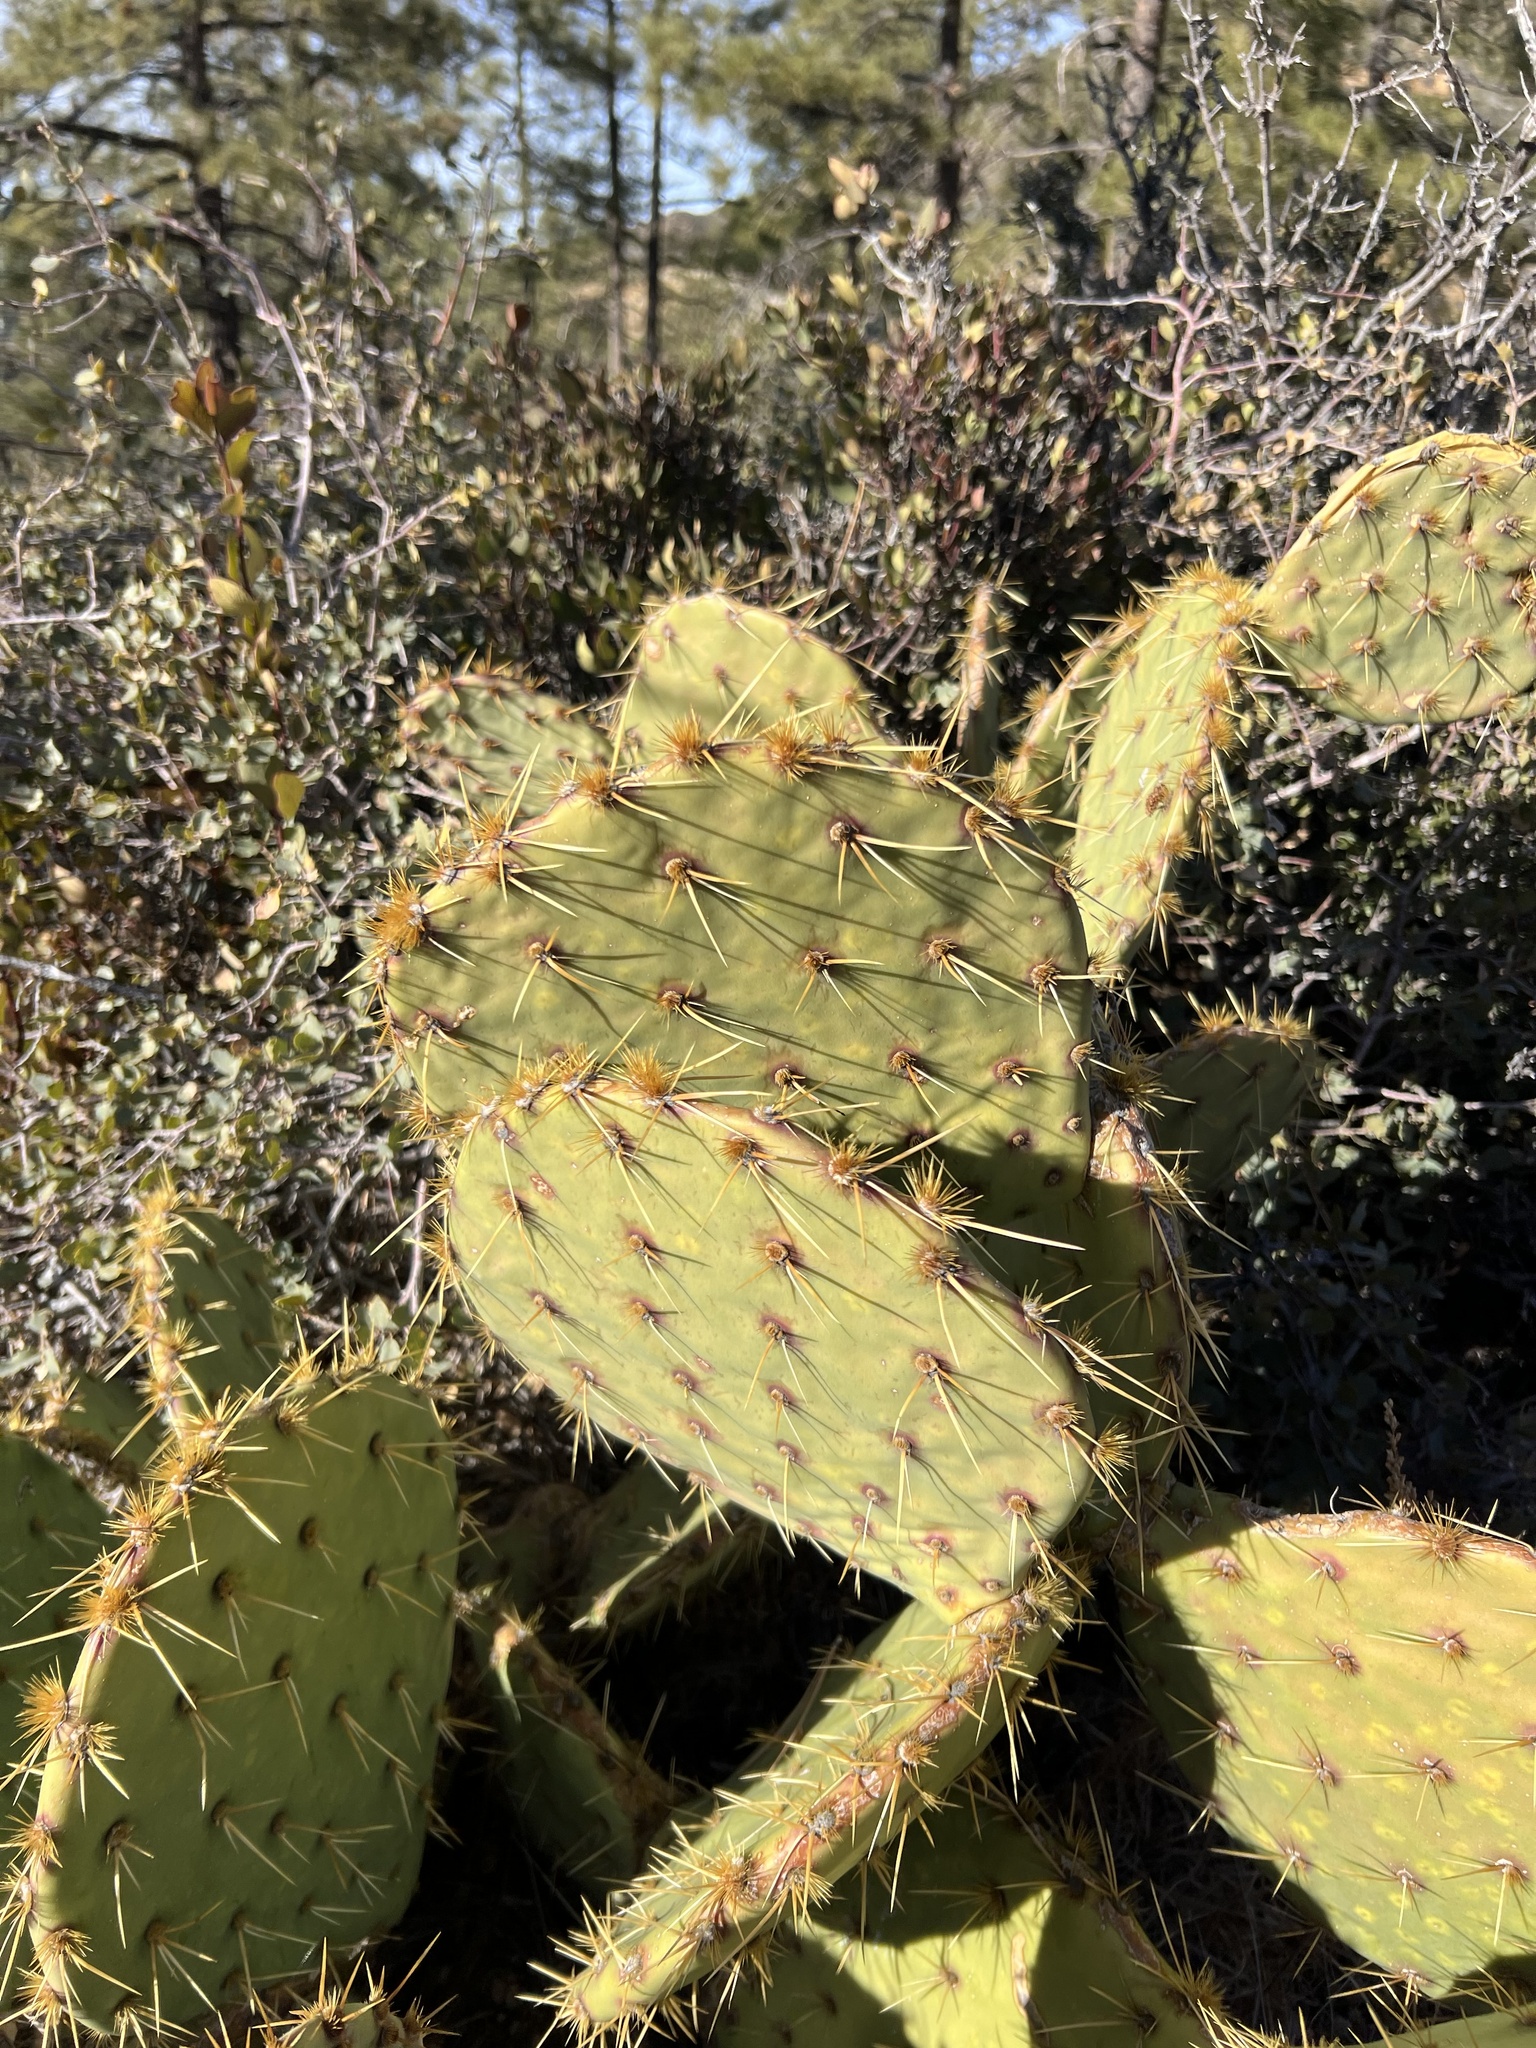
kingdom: Plantae
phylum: Tracheophyta
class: Magnoliopsida
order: Caryophyllales
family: Cactaceae
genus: Opuntia
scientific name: Opuntia chlorotica
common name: Dollar-joint prickly-pear
